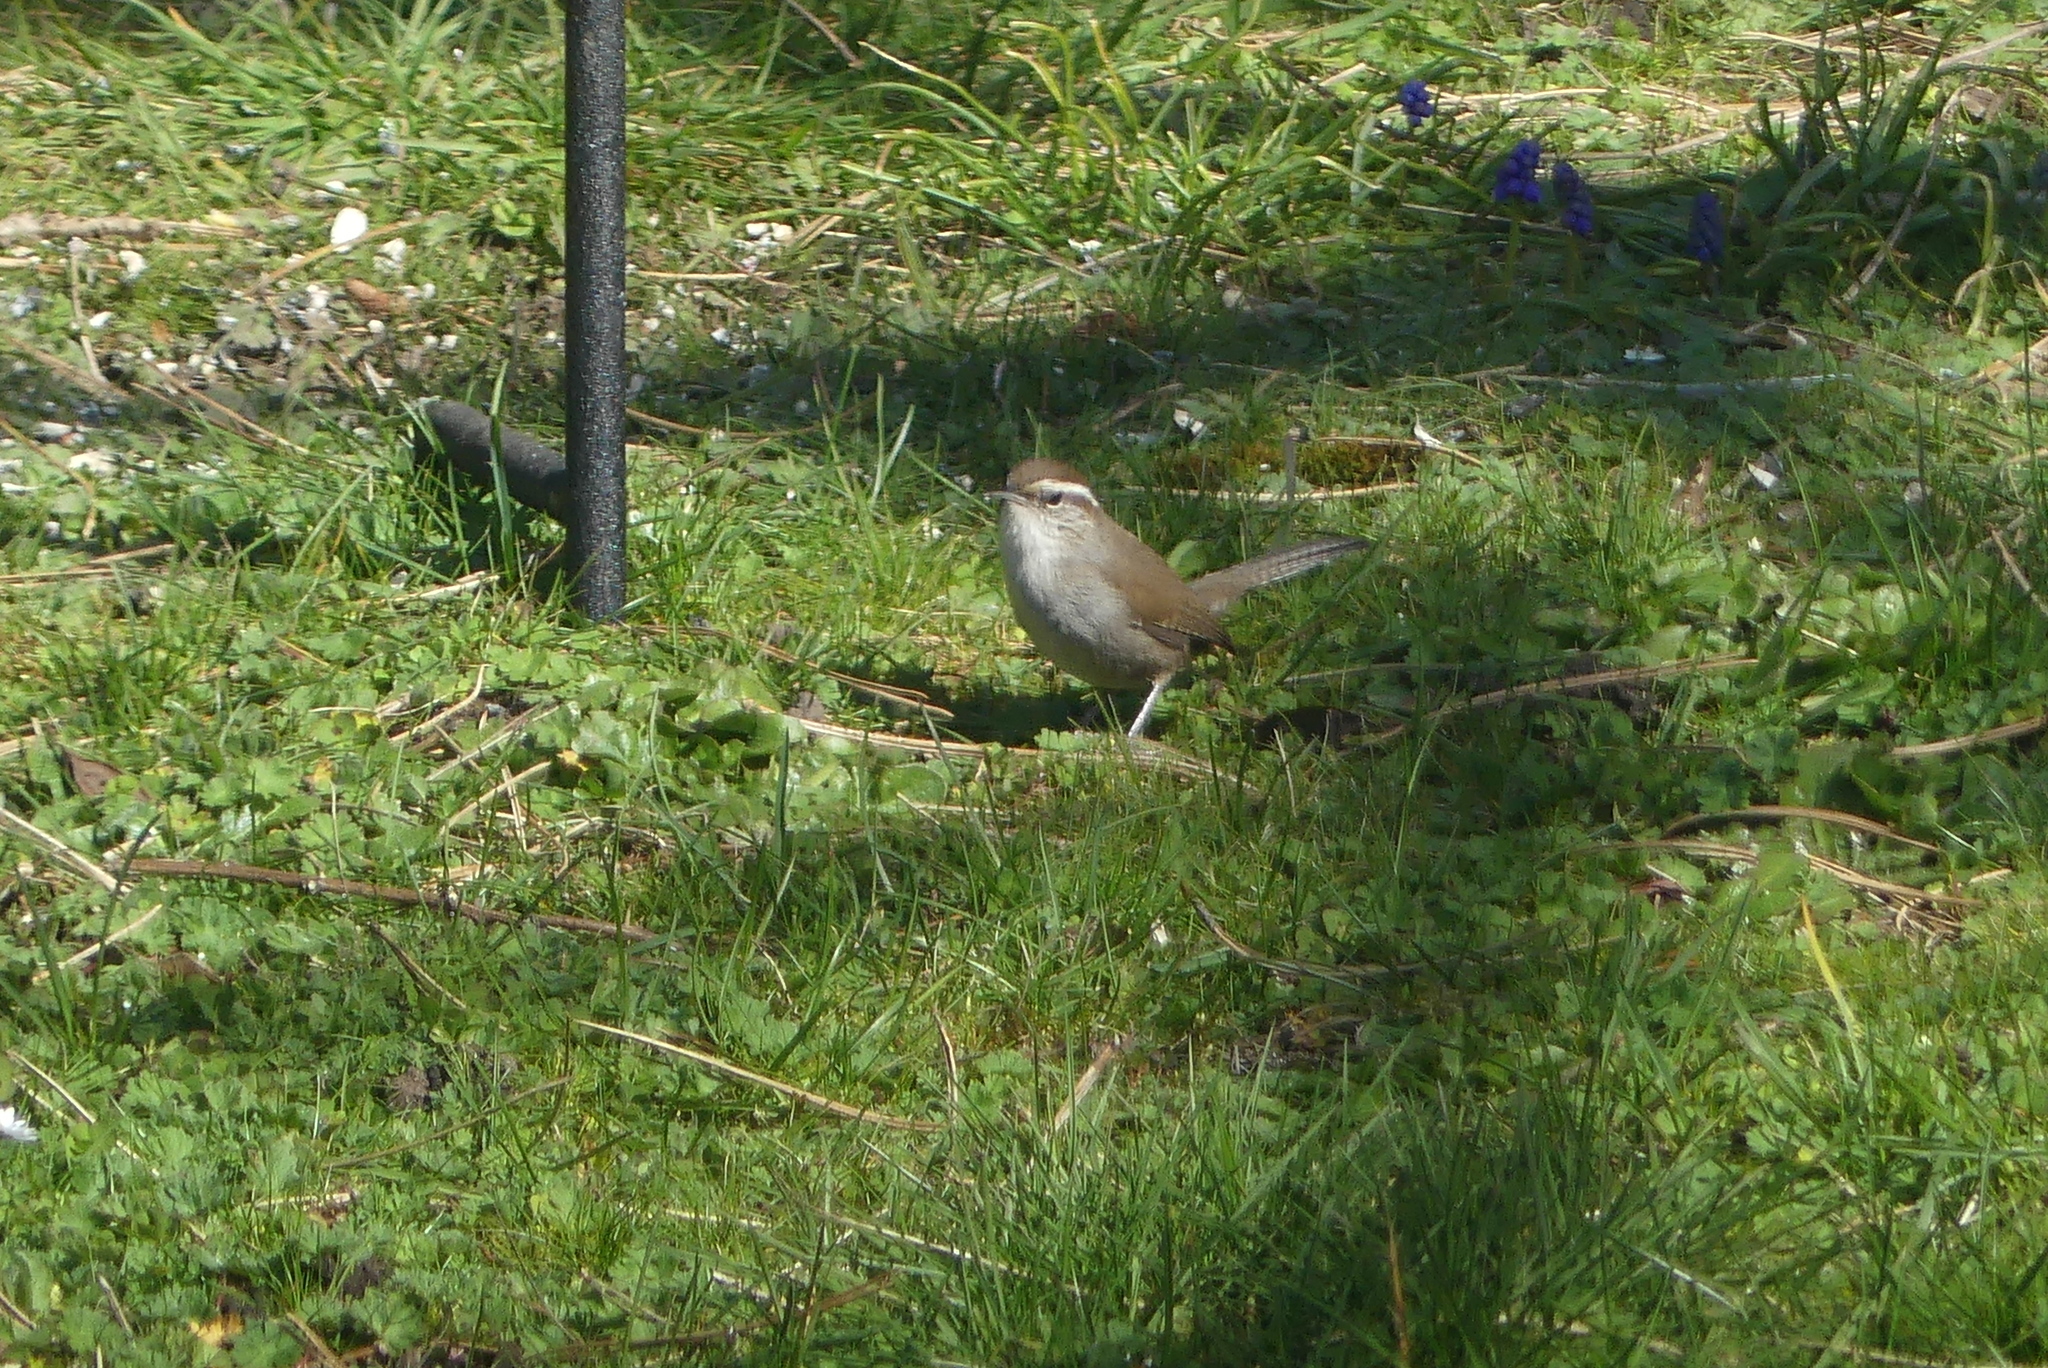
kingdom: Animalia
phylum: Chordata
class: Aves
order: Passeriformes
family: Troglodytidae
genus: Thryomanes
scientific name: Thryomanes bewickii
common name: Bewick's wren
